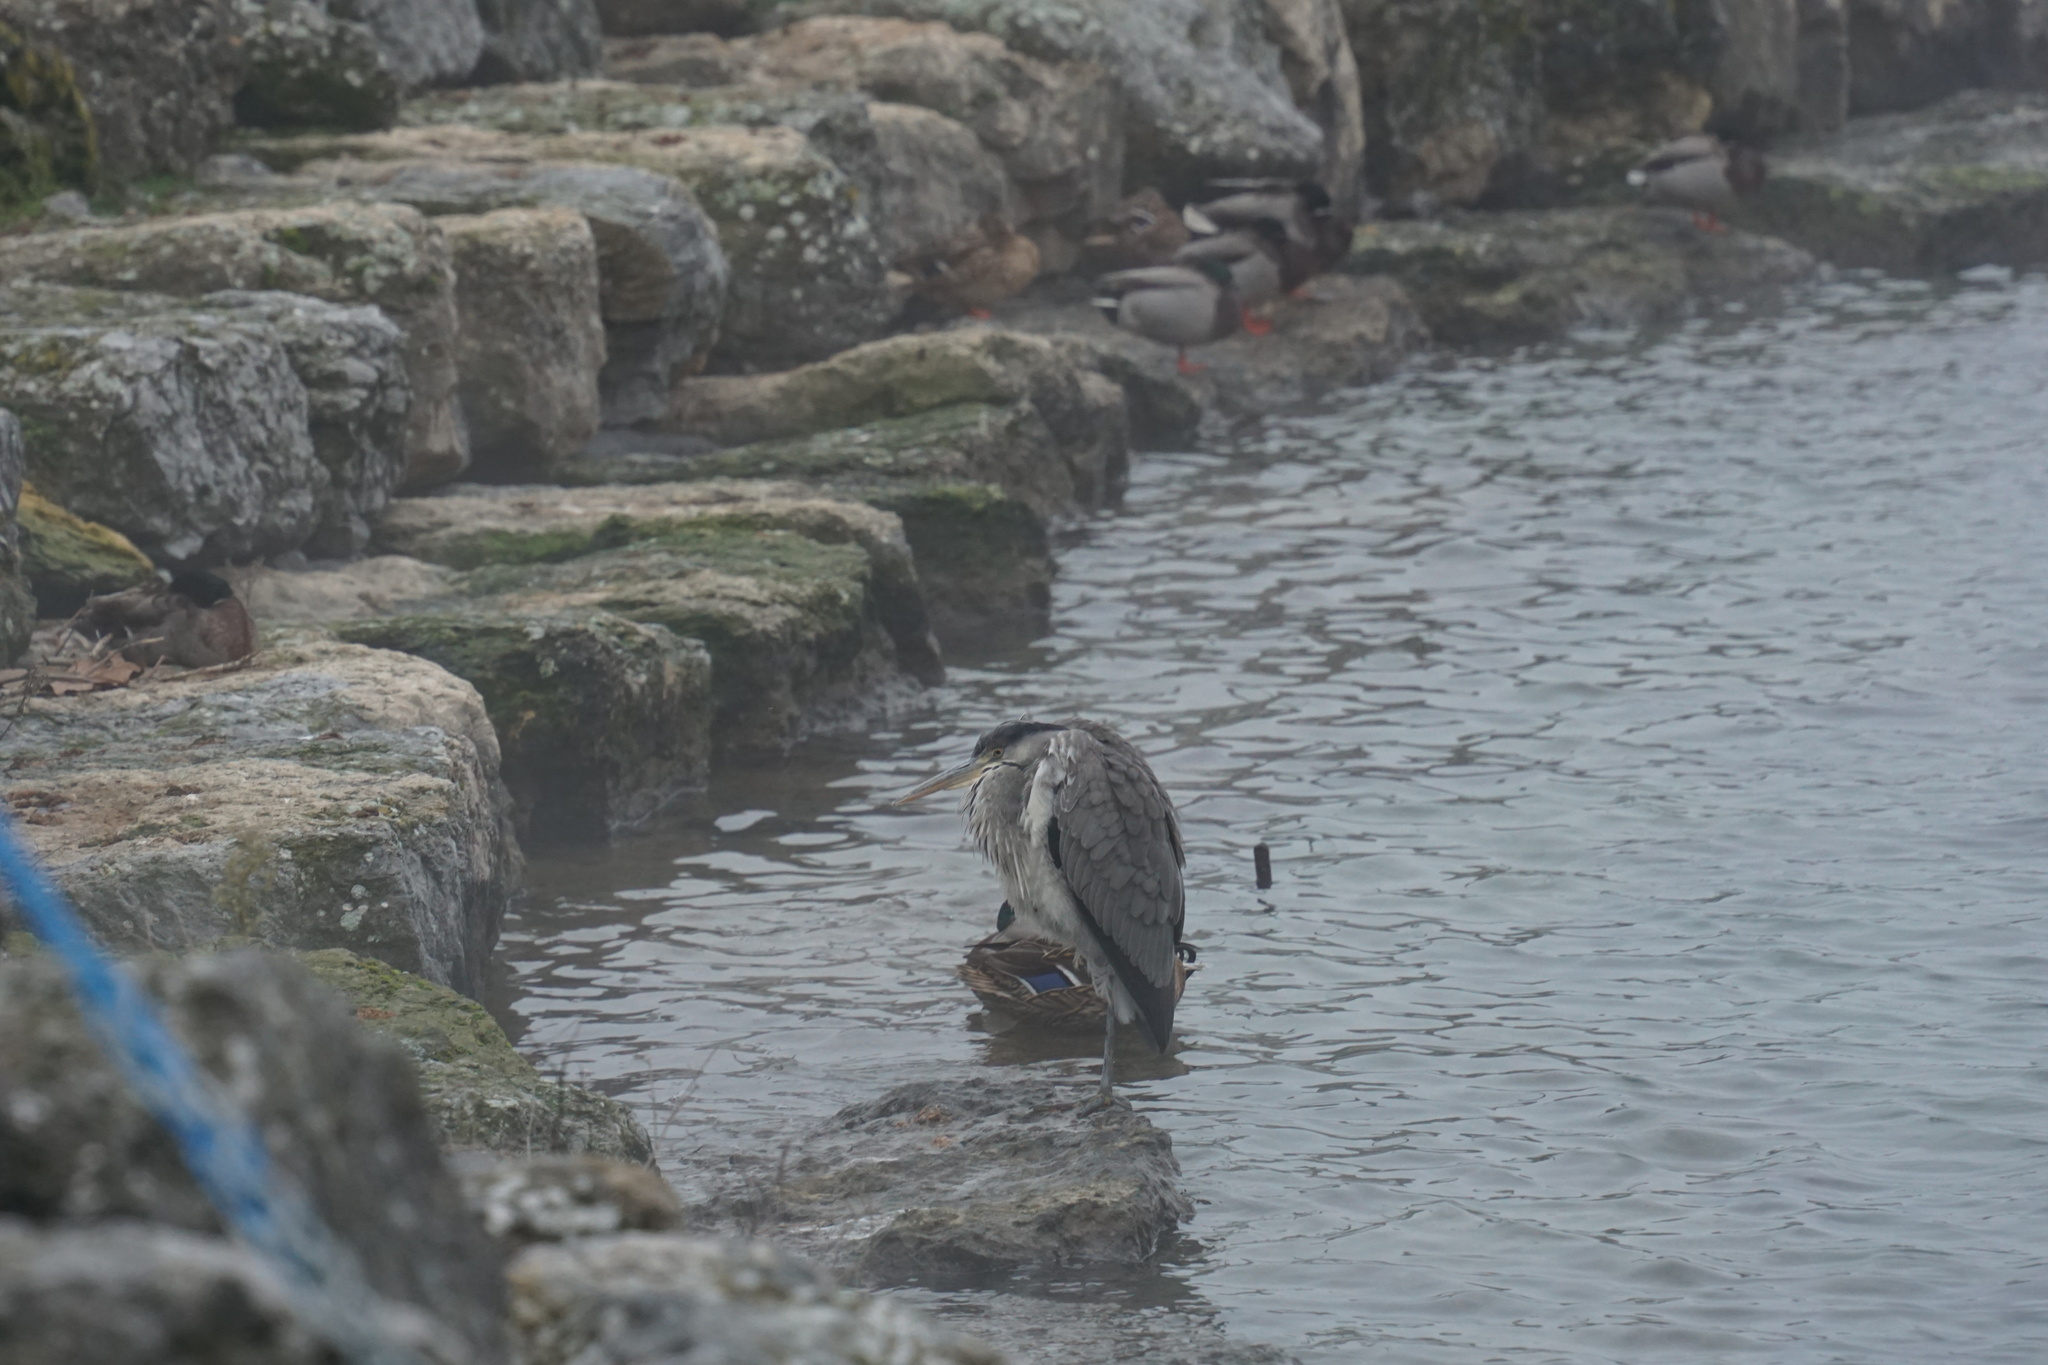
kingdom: Animalia
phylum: Chordata
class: Aves
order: Pelecaniformes
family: Ardeidae
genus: Ardea
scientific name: Ardea cinerea
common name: Grey heron
